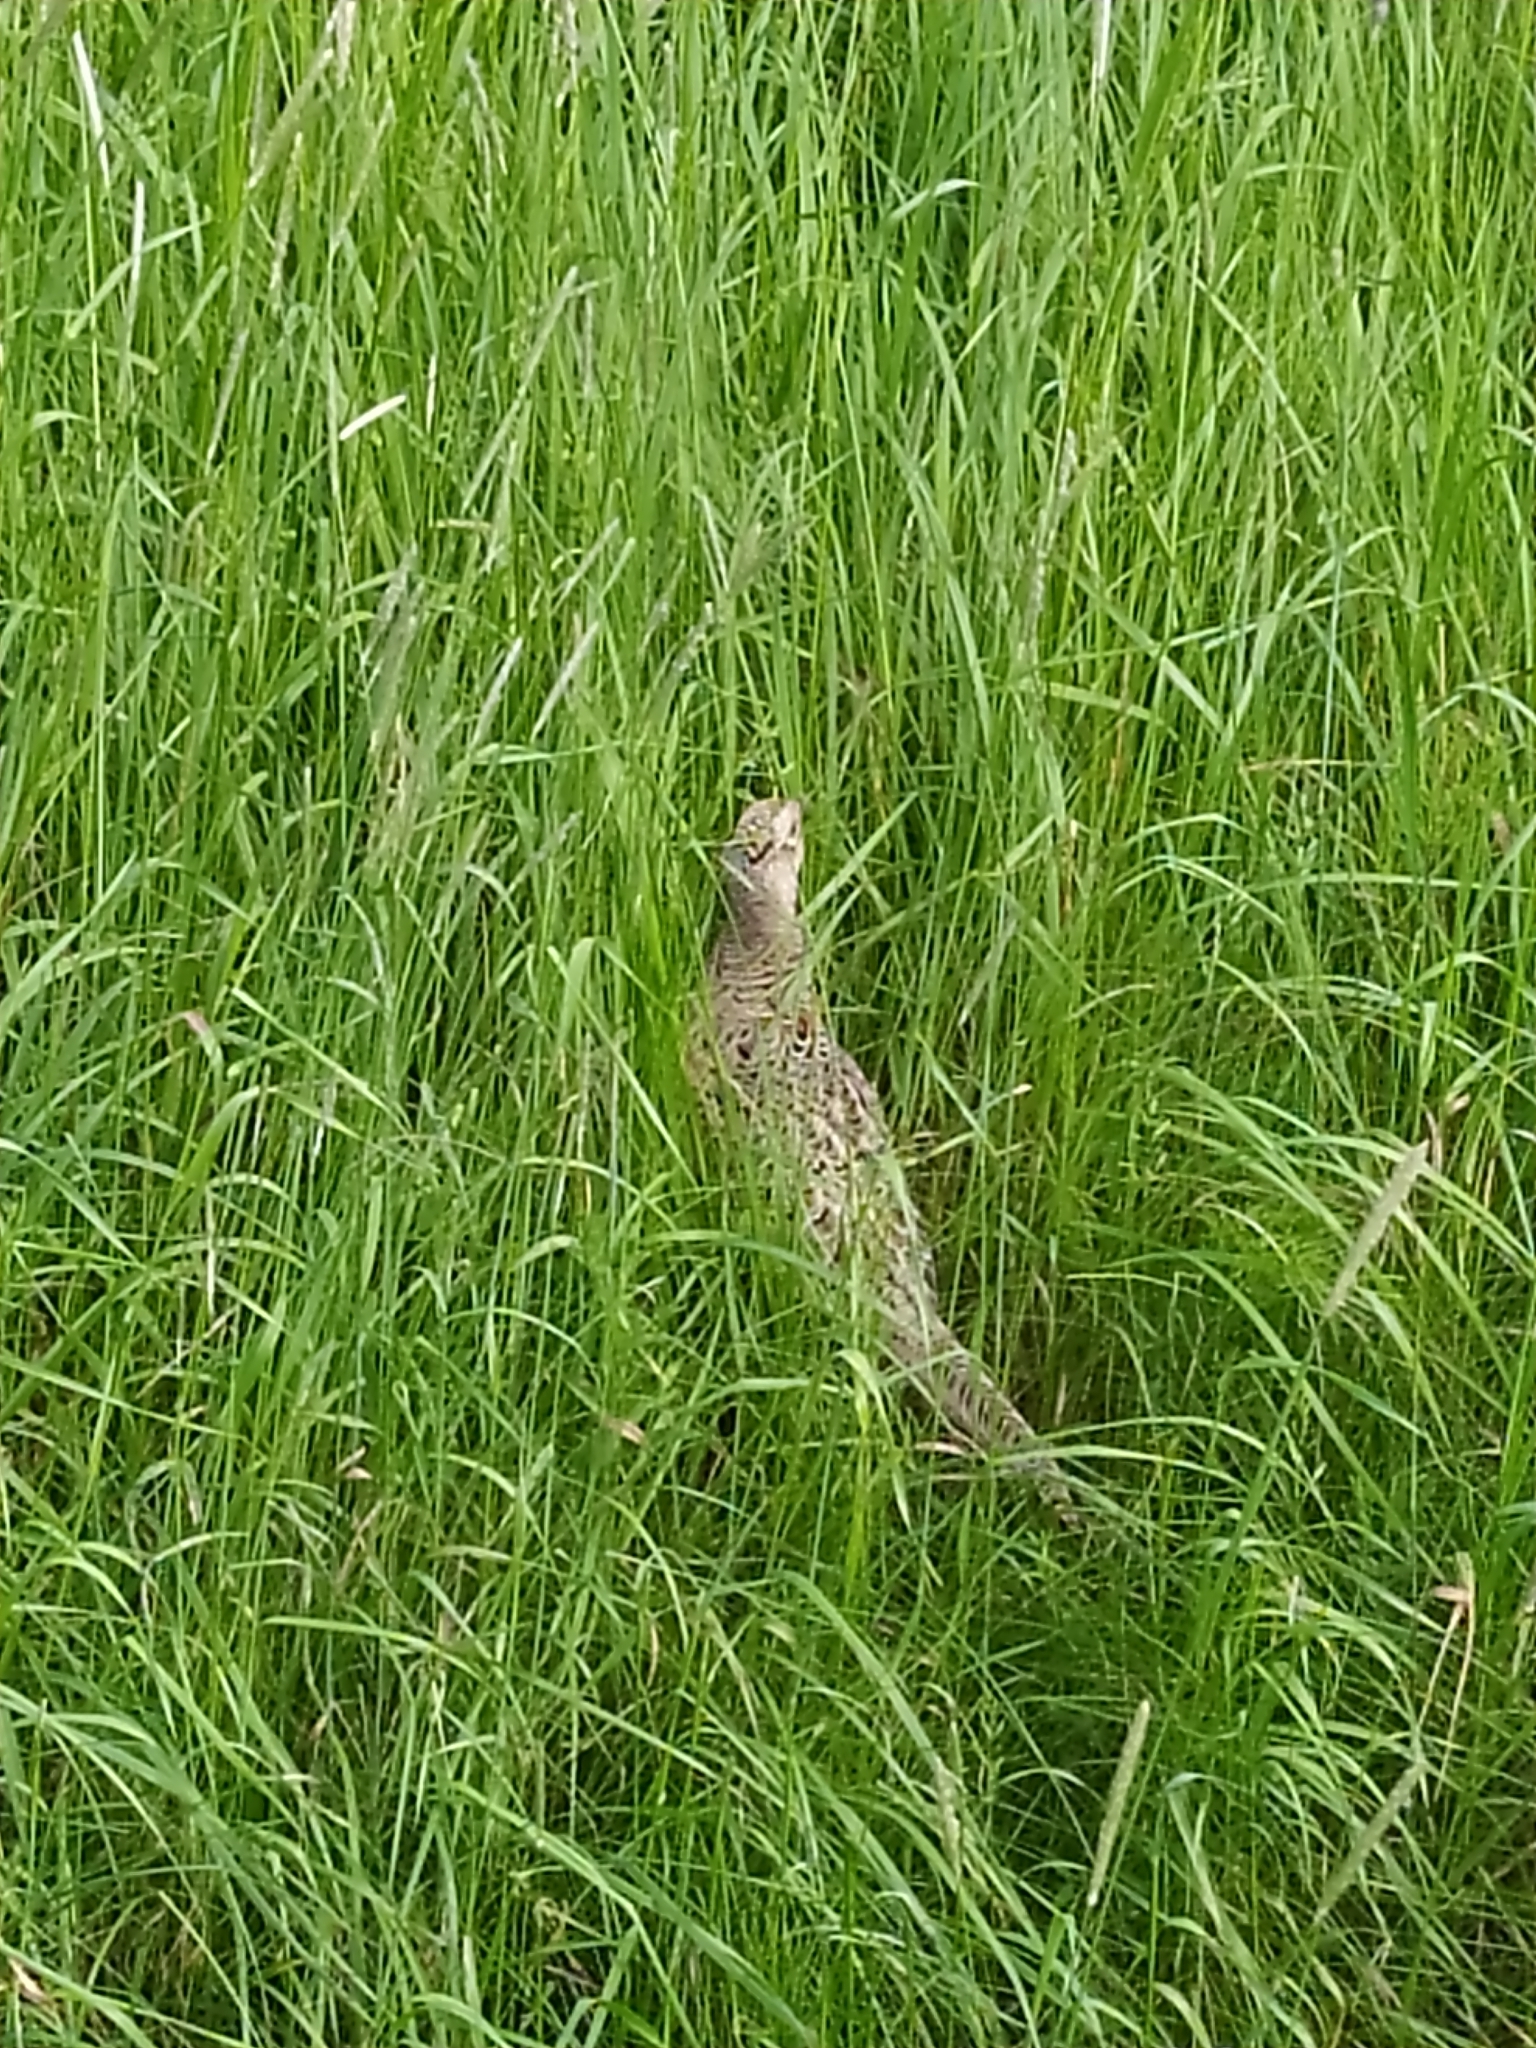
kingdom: Animalia
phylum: Chordata
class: Aves
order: Galliformes
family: Phasianidae
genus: Phasianus
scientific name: Phasianus colchicus
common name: Common pheasant
